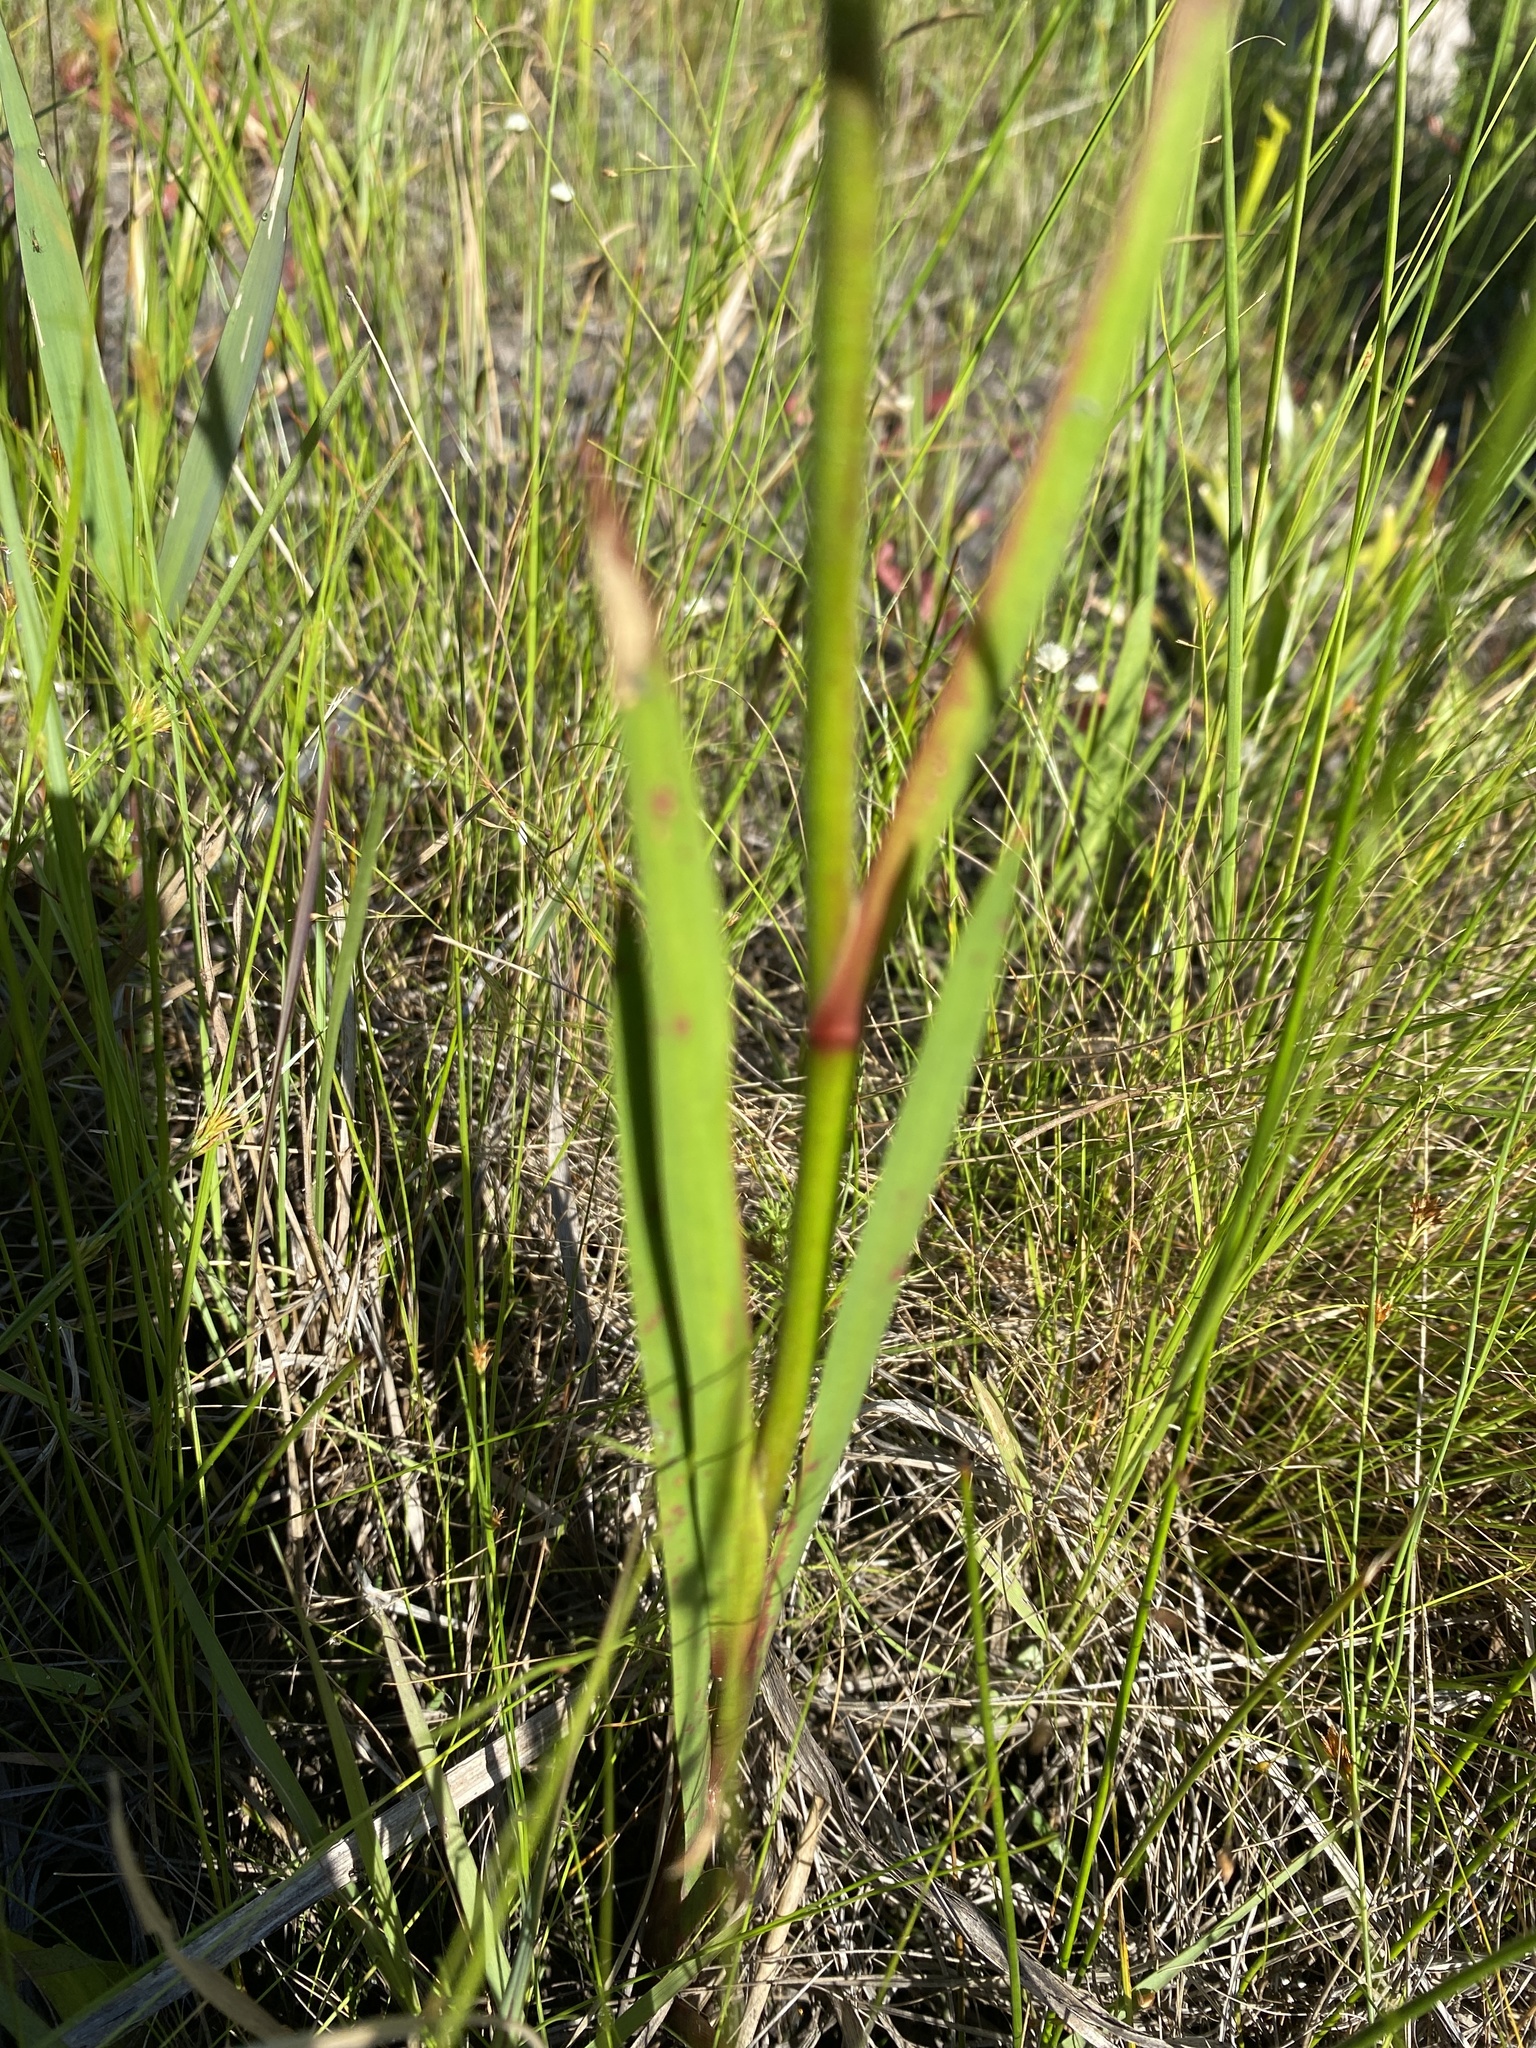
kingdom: Plantae
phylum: Tracheophyta
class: Liliopsida
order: Dioscoreales
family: Nartheciaceae
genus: Lophiola
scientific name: Lophiola aurea
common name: Golden-crest
